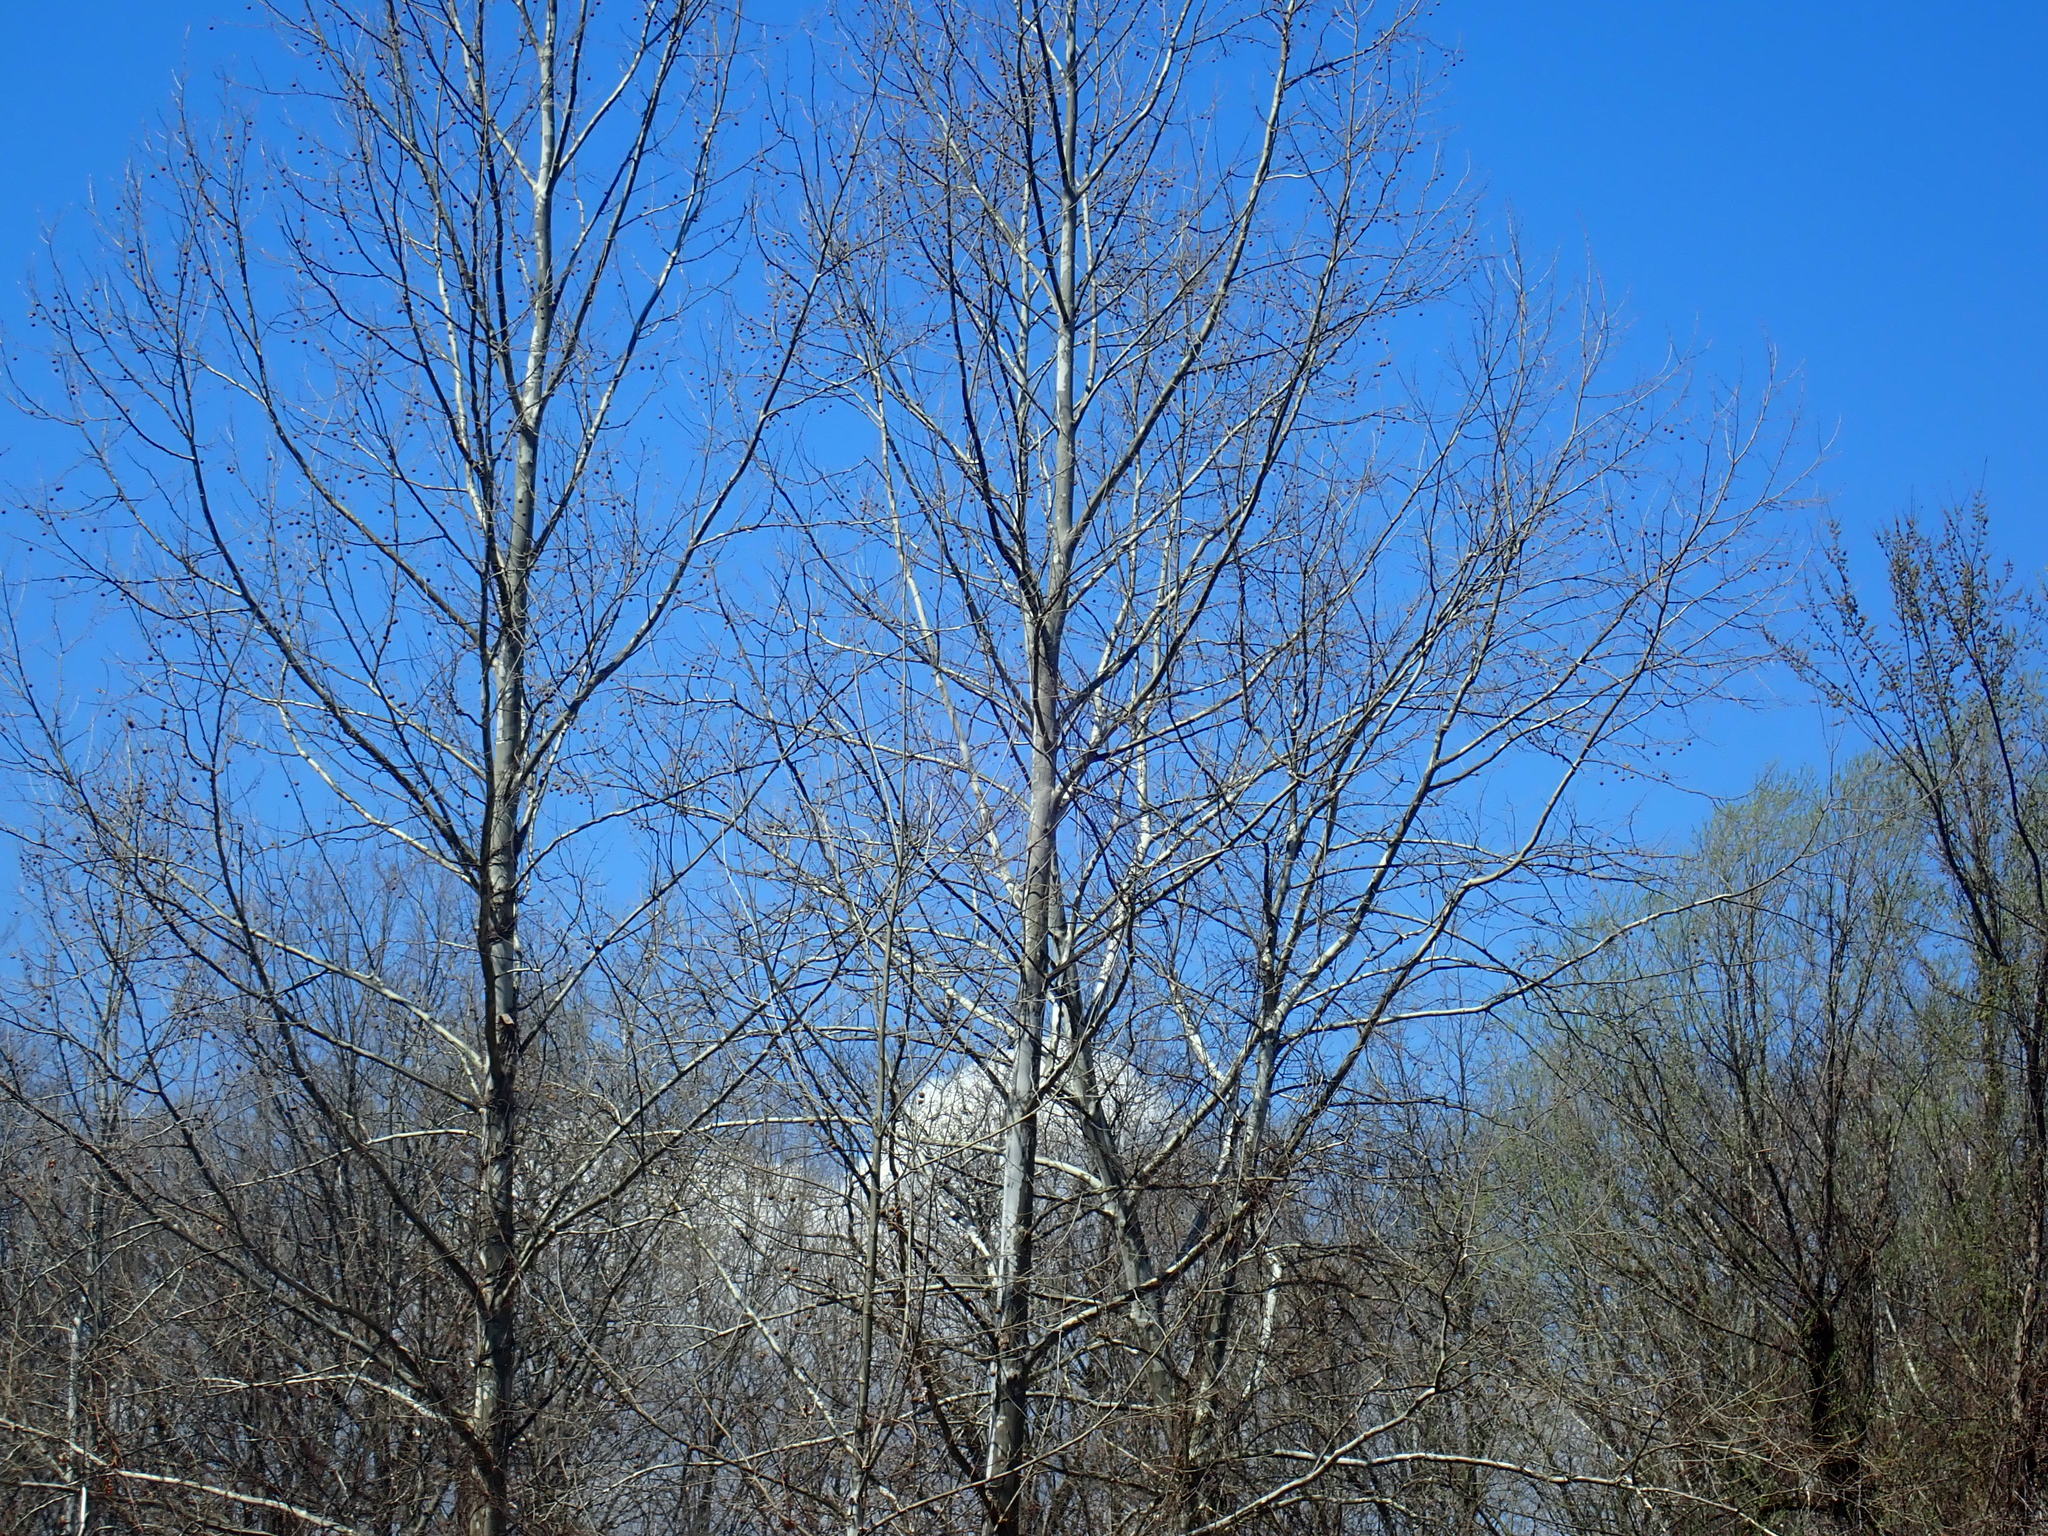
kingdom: Plantae
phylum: Tracheophyta
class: Magnoliopsida
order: Proteales
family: Platanaceae
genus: Platanus
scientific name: Platanus occidentalis
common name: American sycamore
